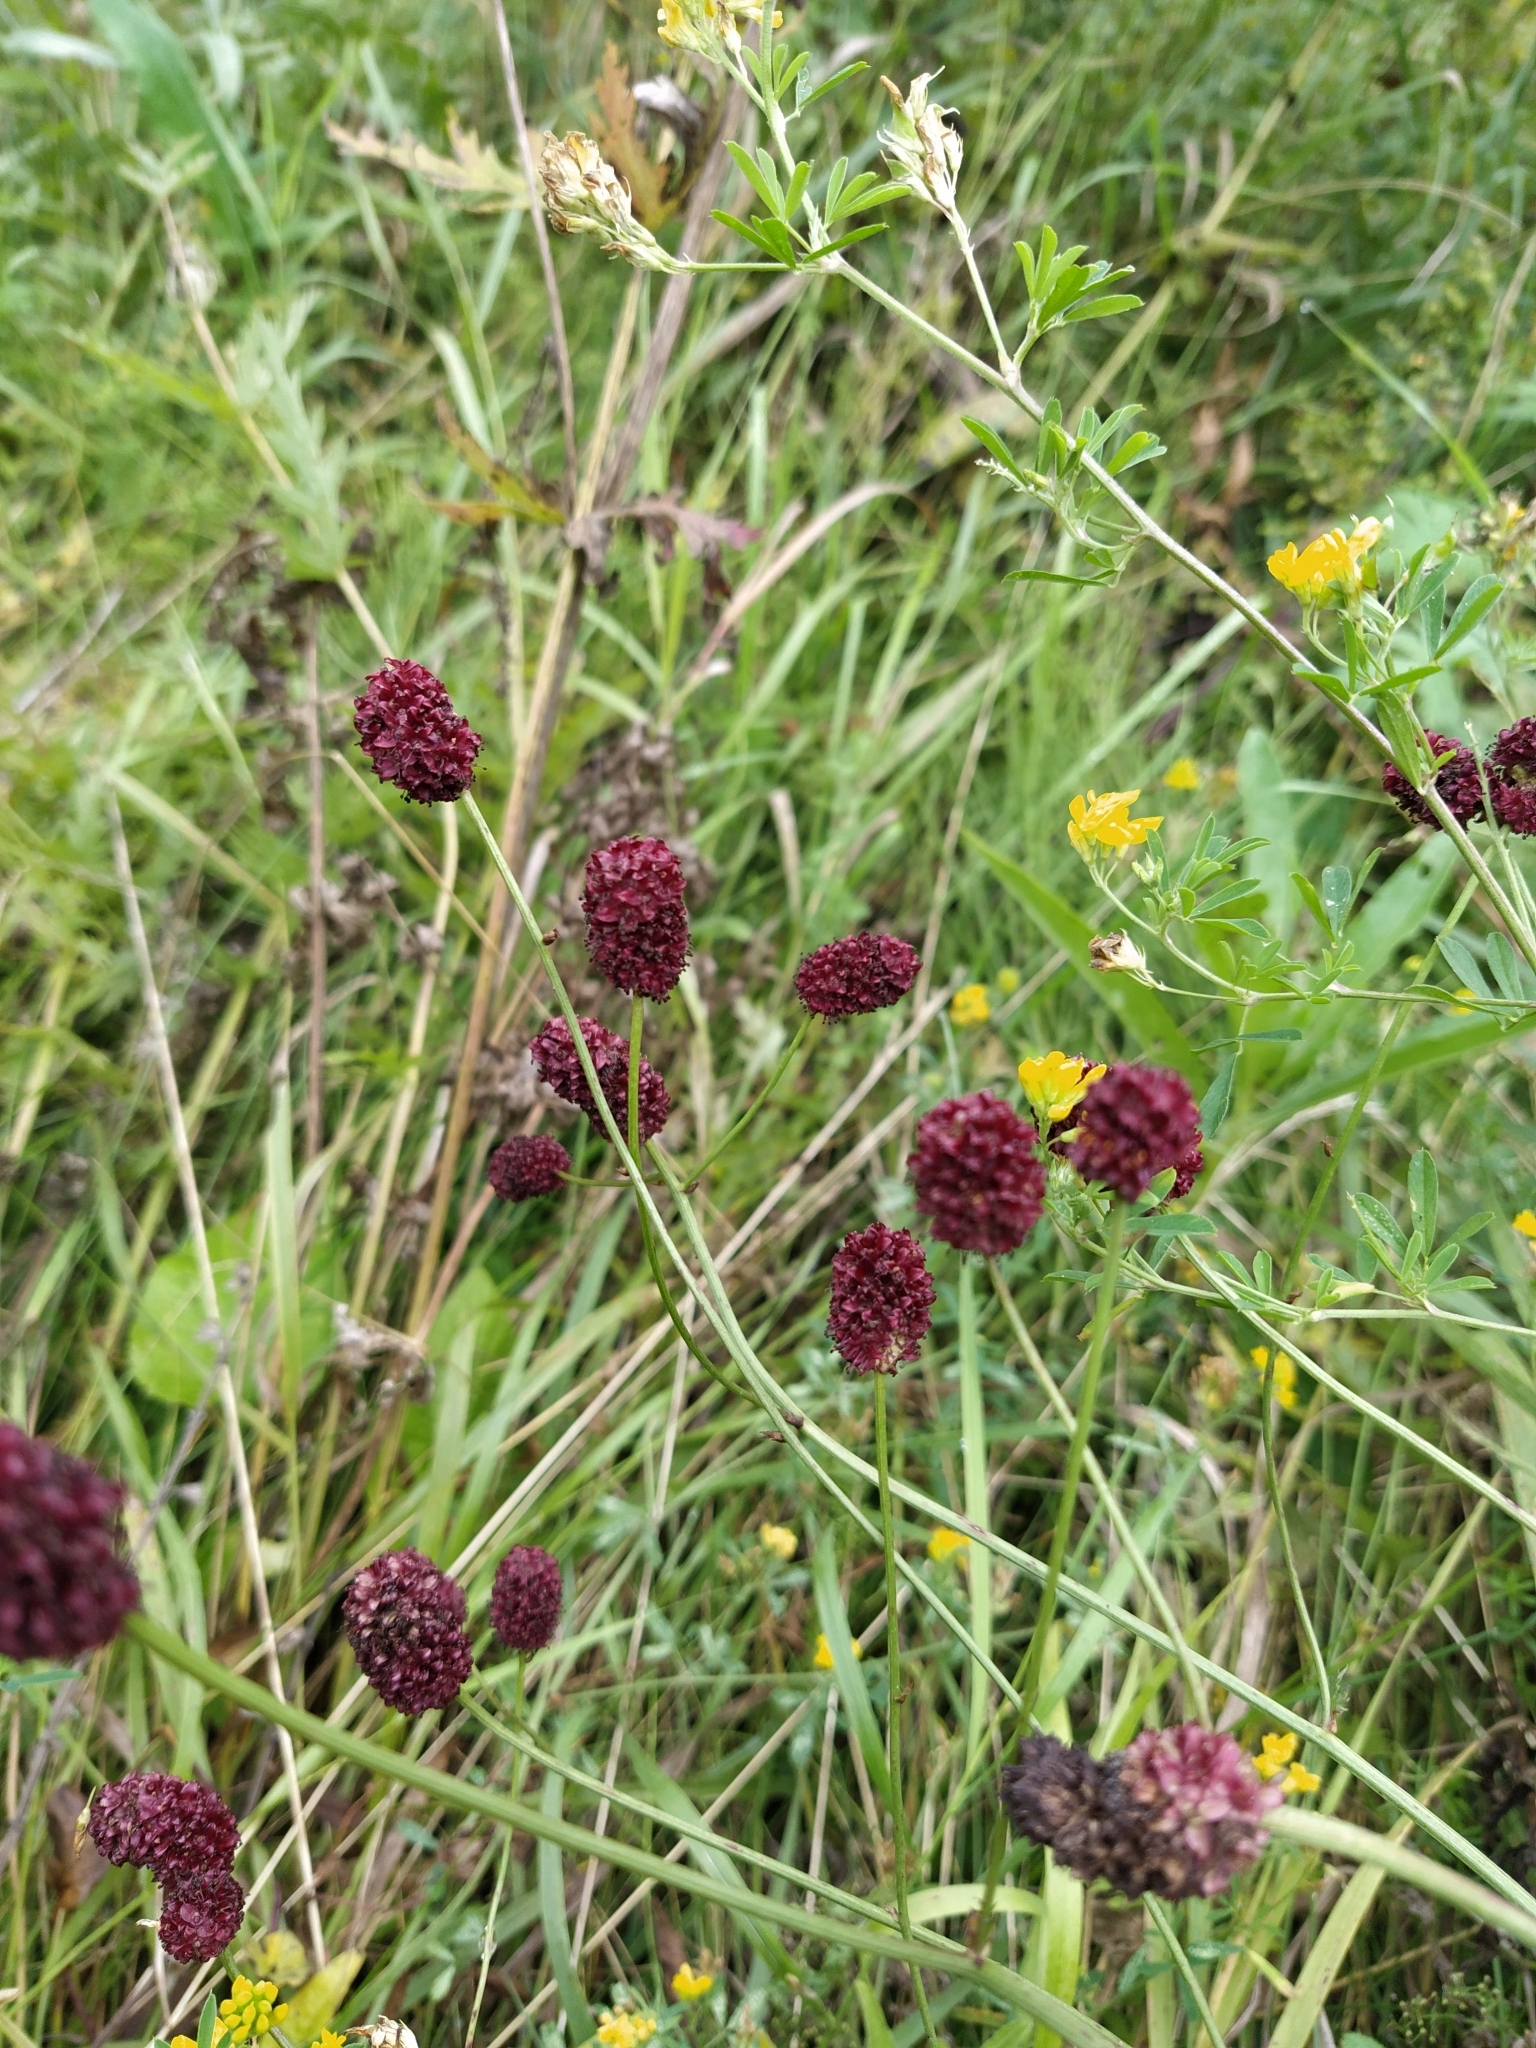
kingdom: Plantae
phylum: Tracheophyta
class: Magnoliopsida
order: Rosales
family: Rosaceae
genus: Sanguisorba
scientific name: Sanguisorba officinalis
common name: Great burnet
